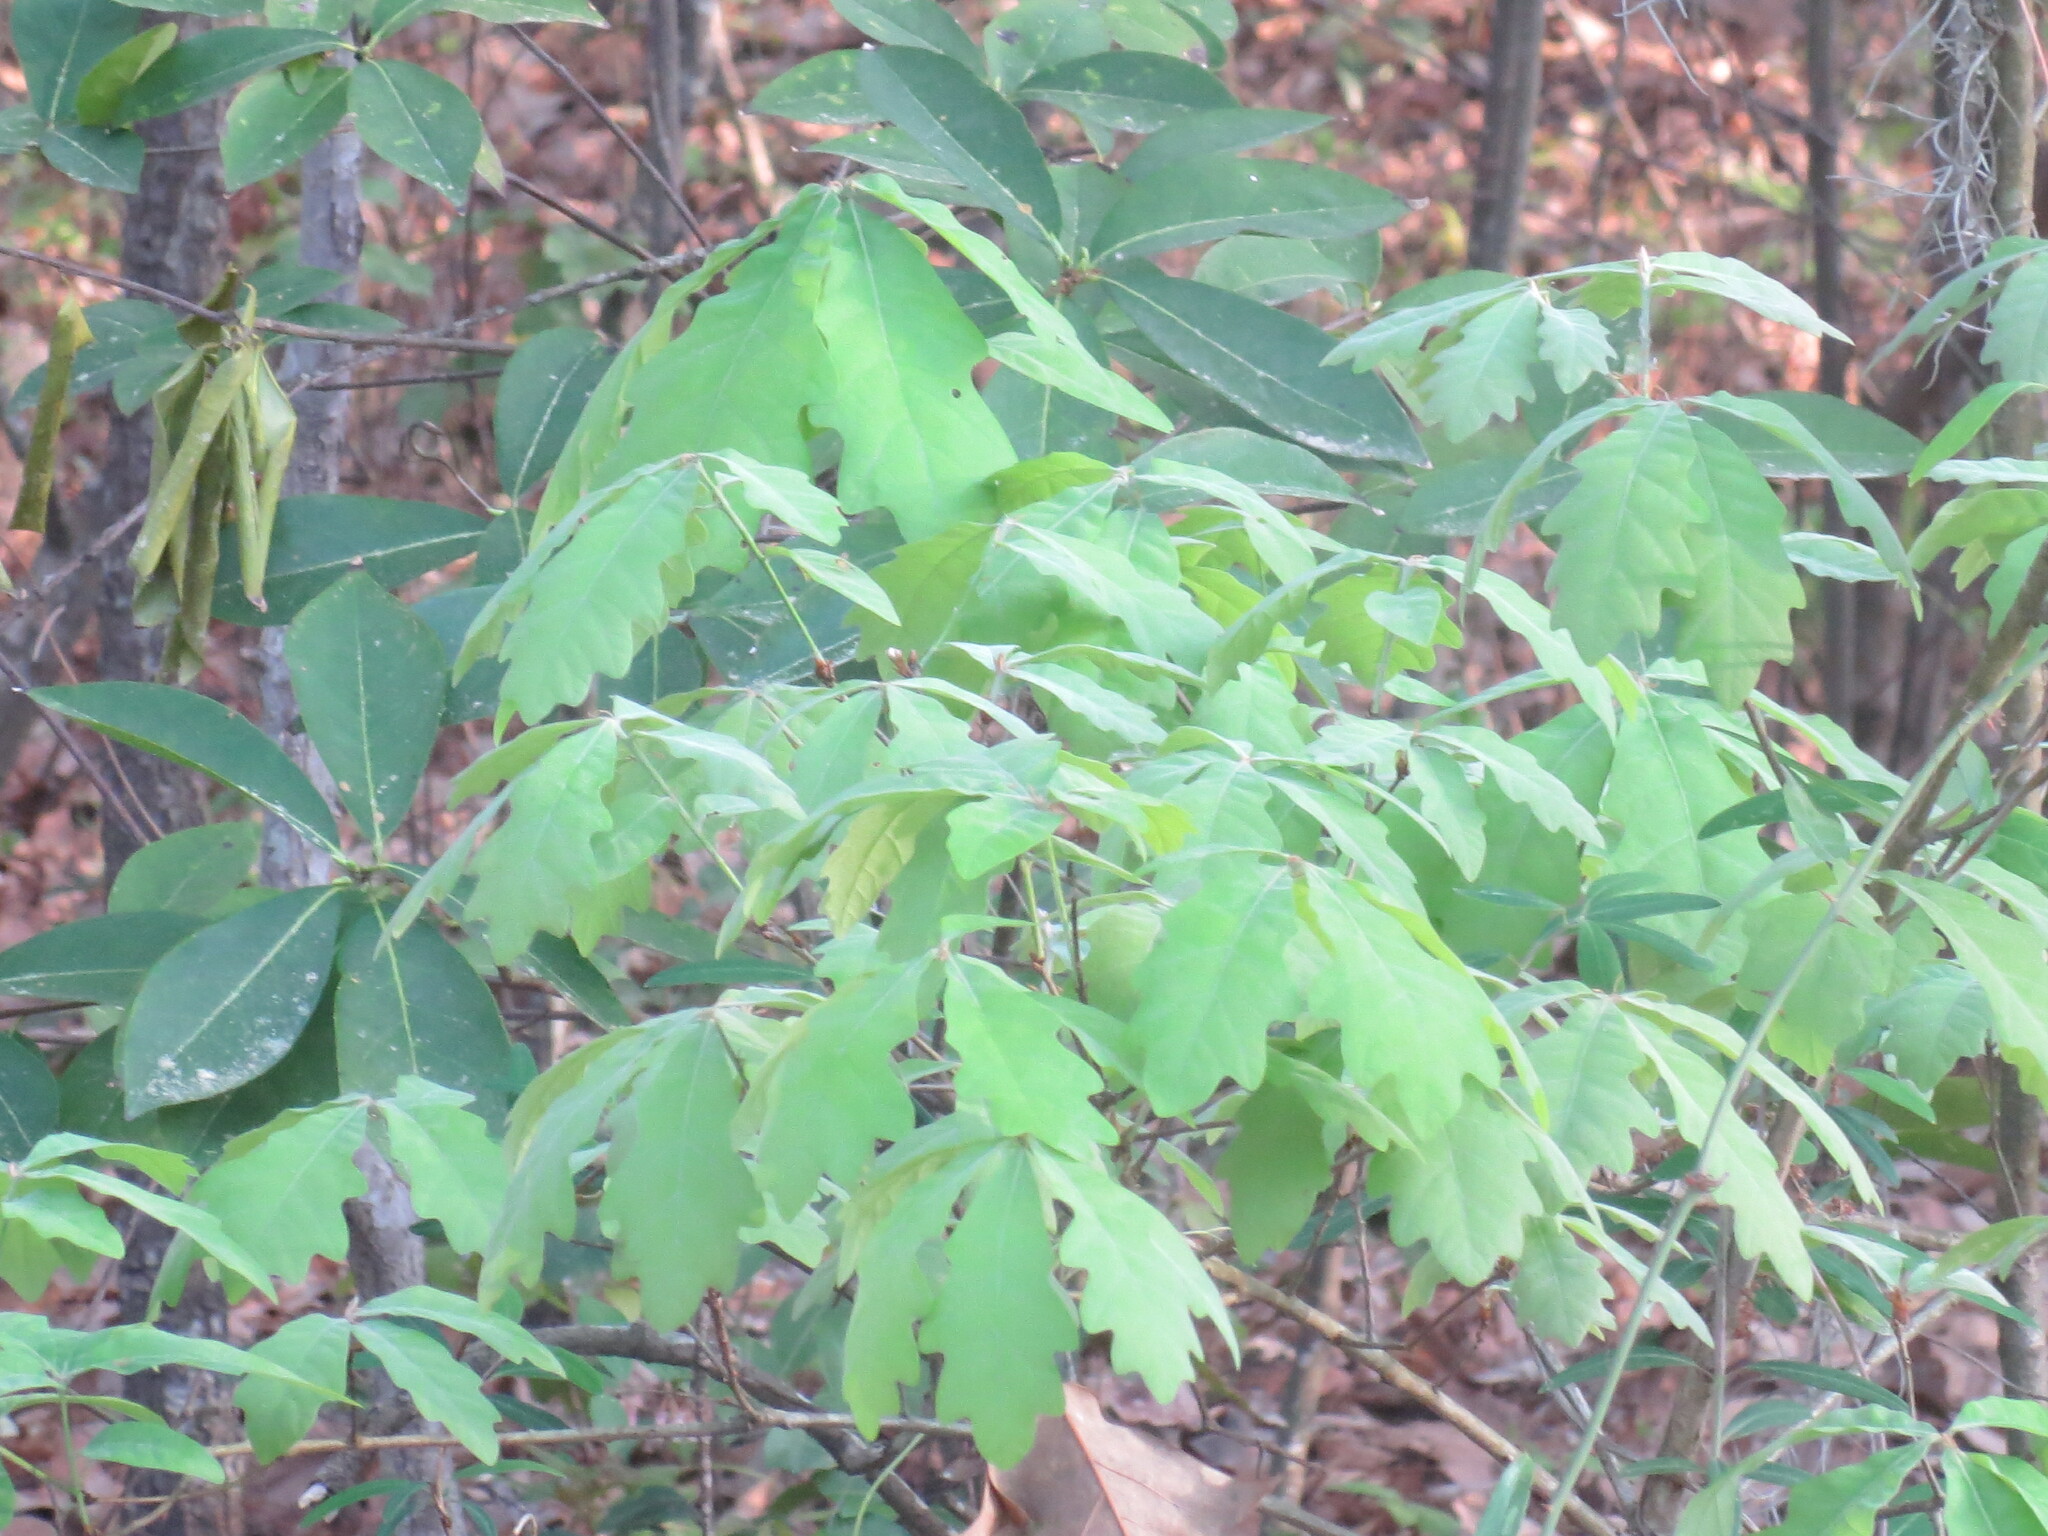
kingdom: Plantae
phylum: Tracheophyta
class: Magnoliopsida
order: Fagales
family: Fagaceae
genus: Quercus
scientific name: Quercus alba
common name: White oak
